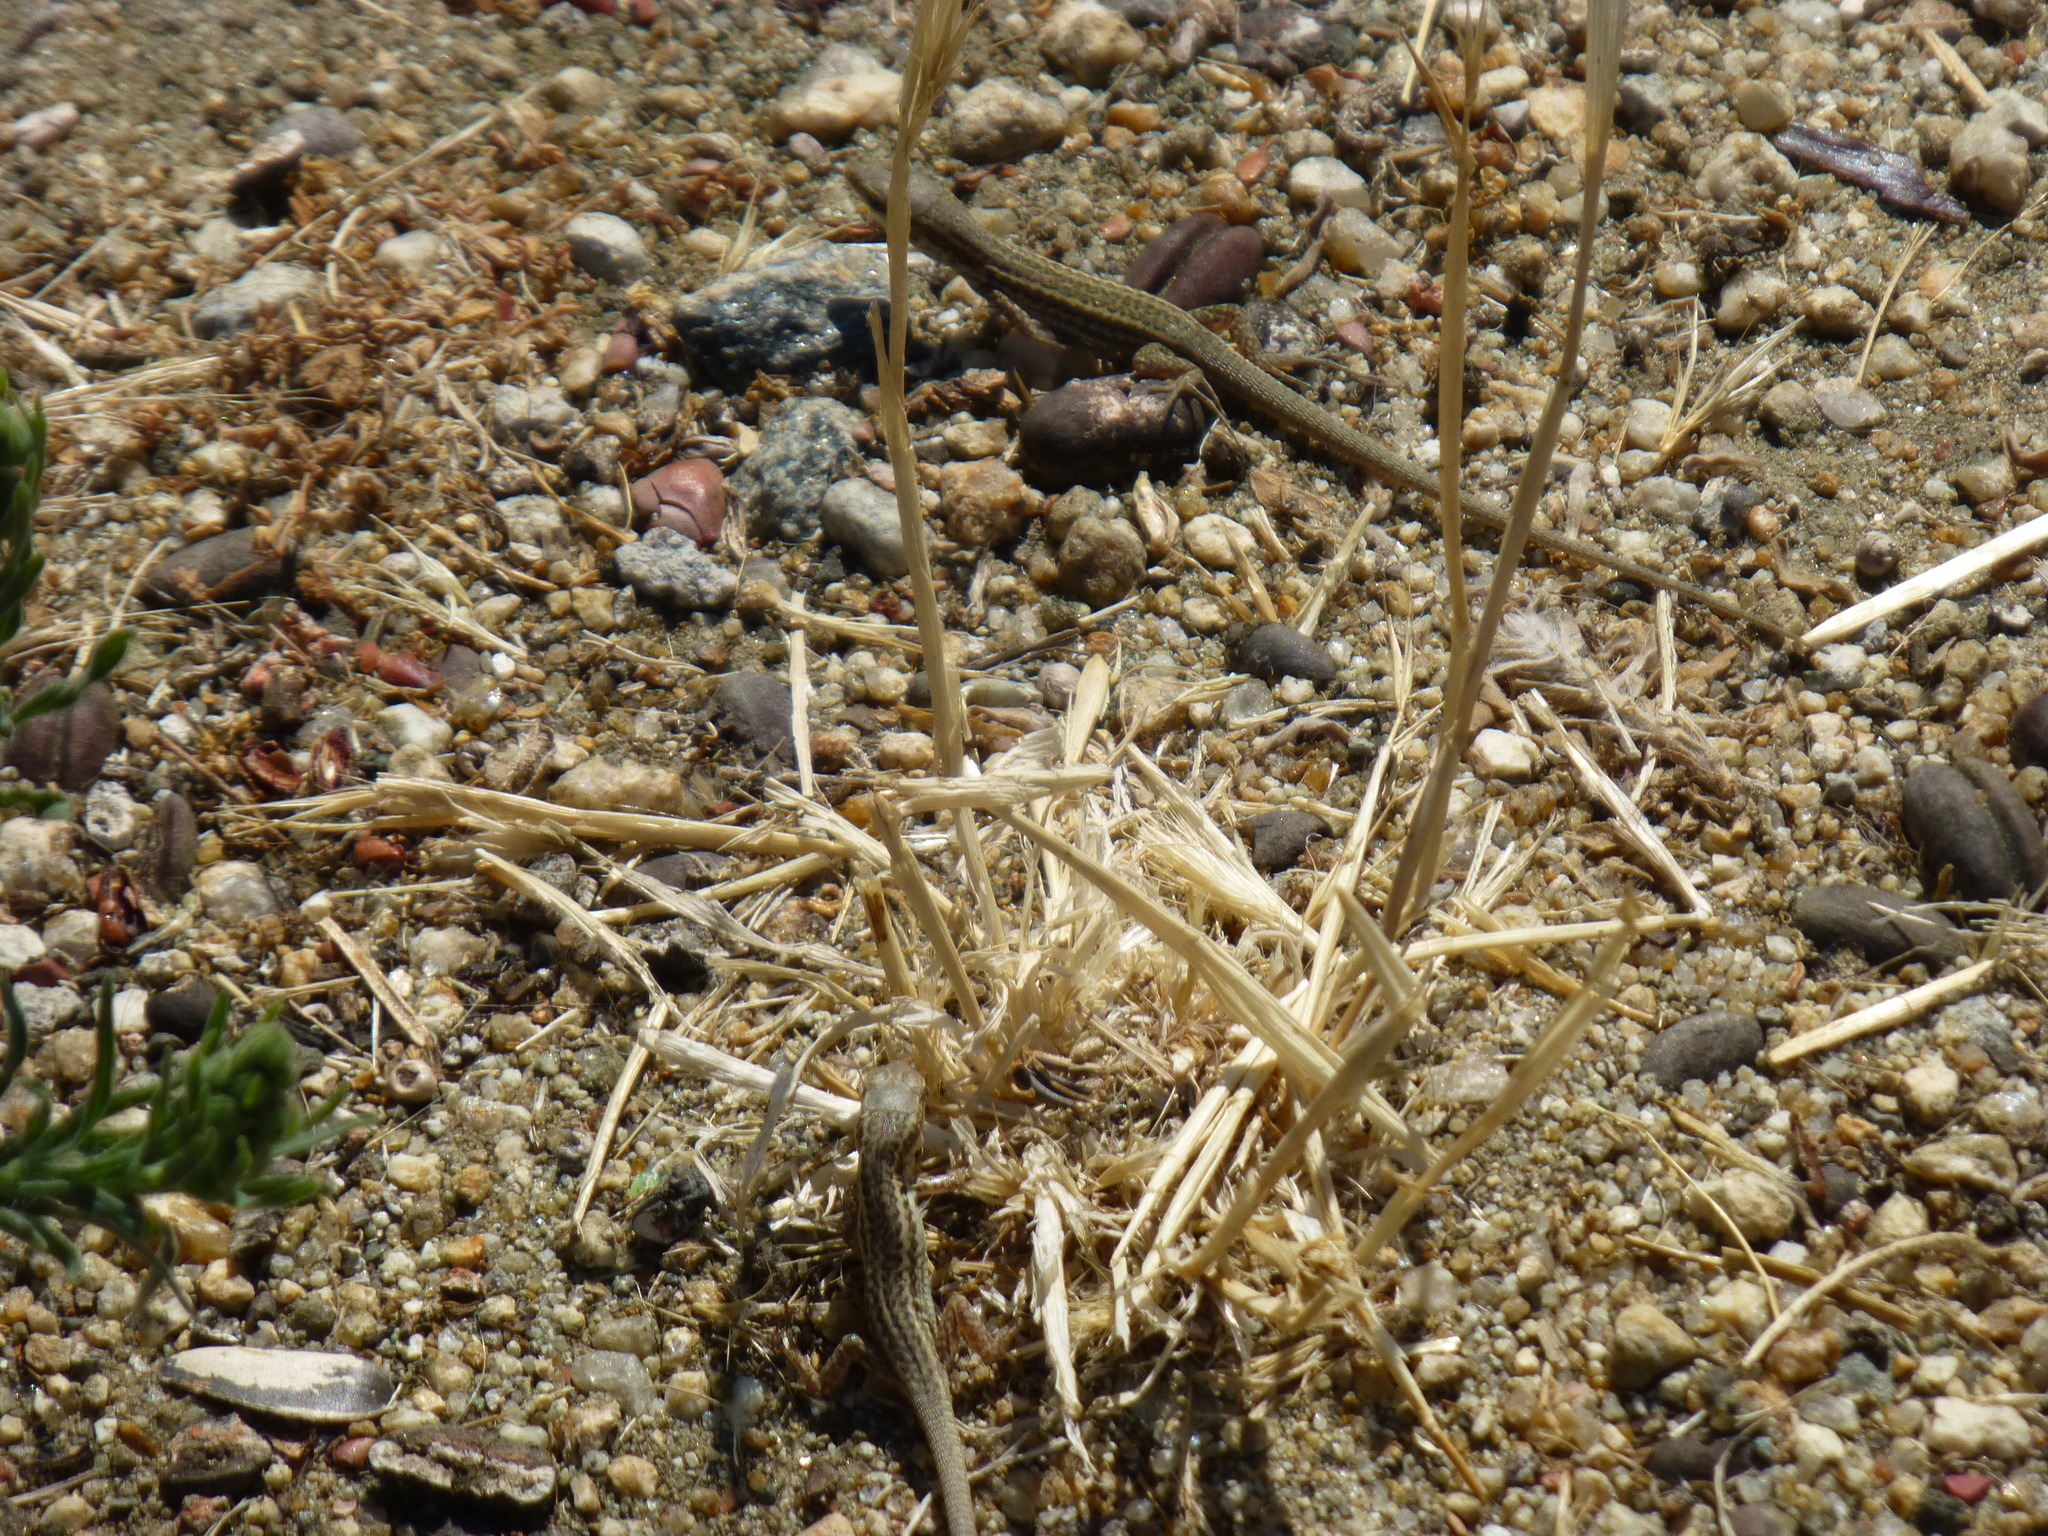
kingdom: Animalia
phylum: Chordata
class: Squamata
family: Lacertidae
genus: Podarcis
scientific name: Podarcis siculus
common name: Italian wall lizard
